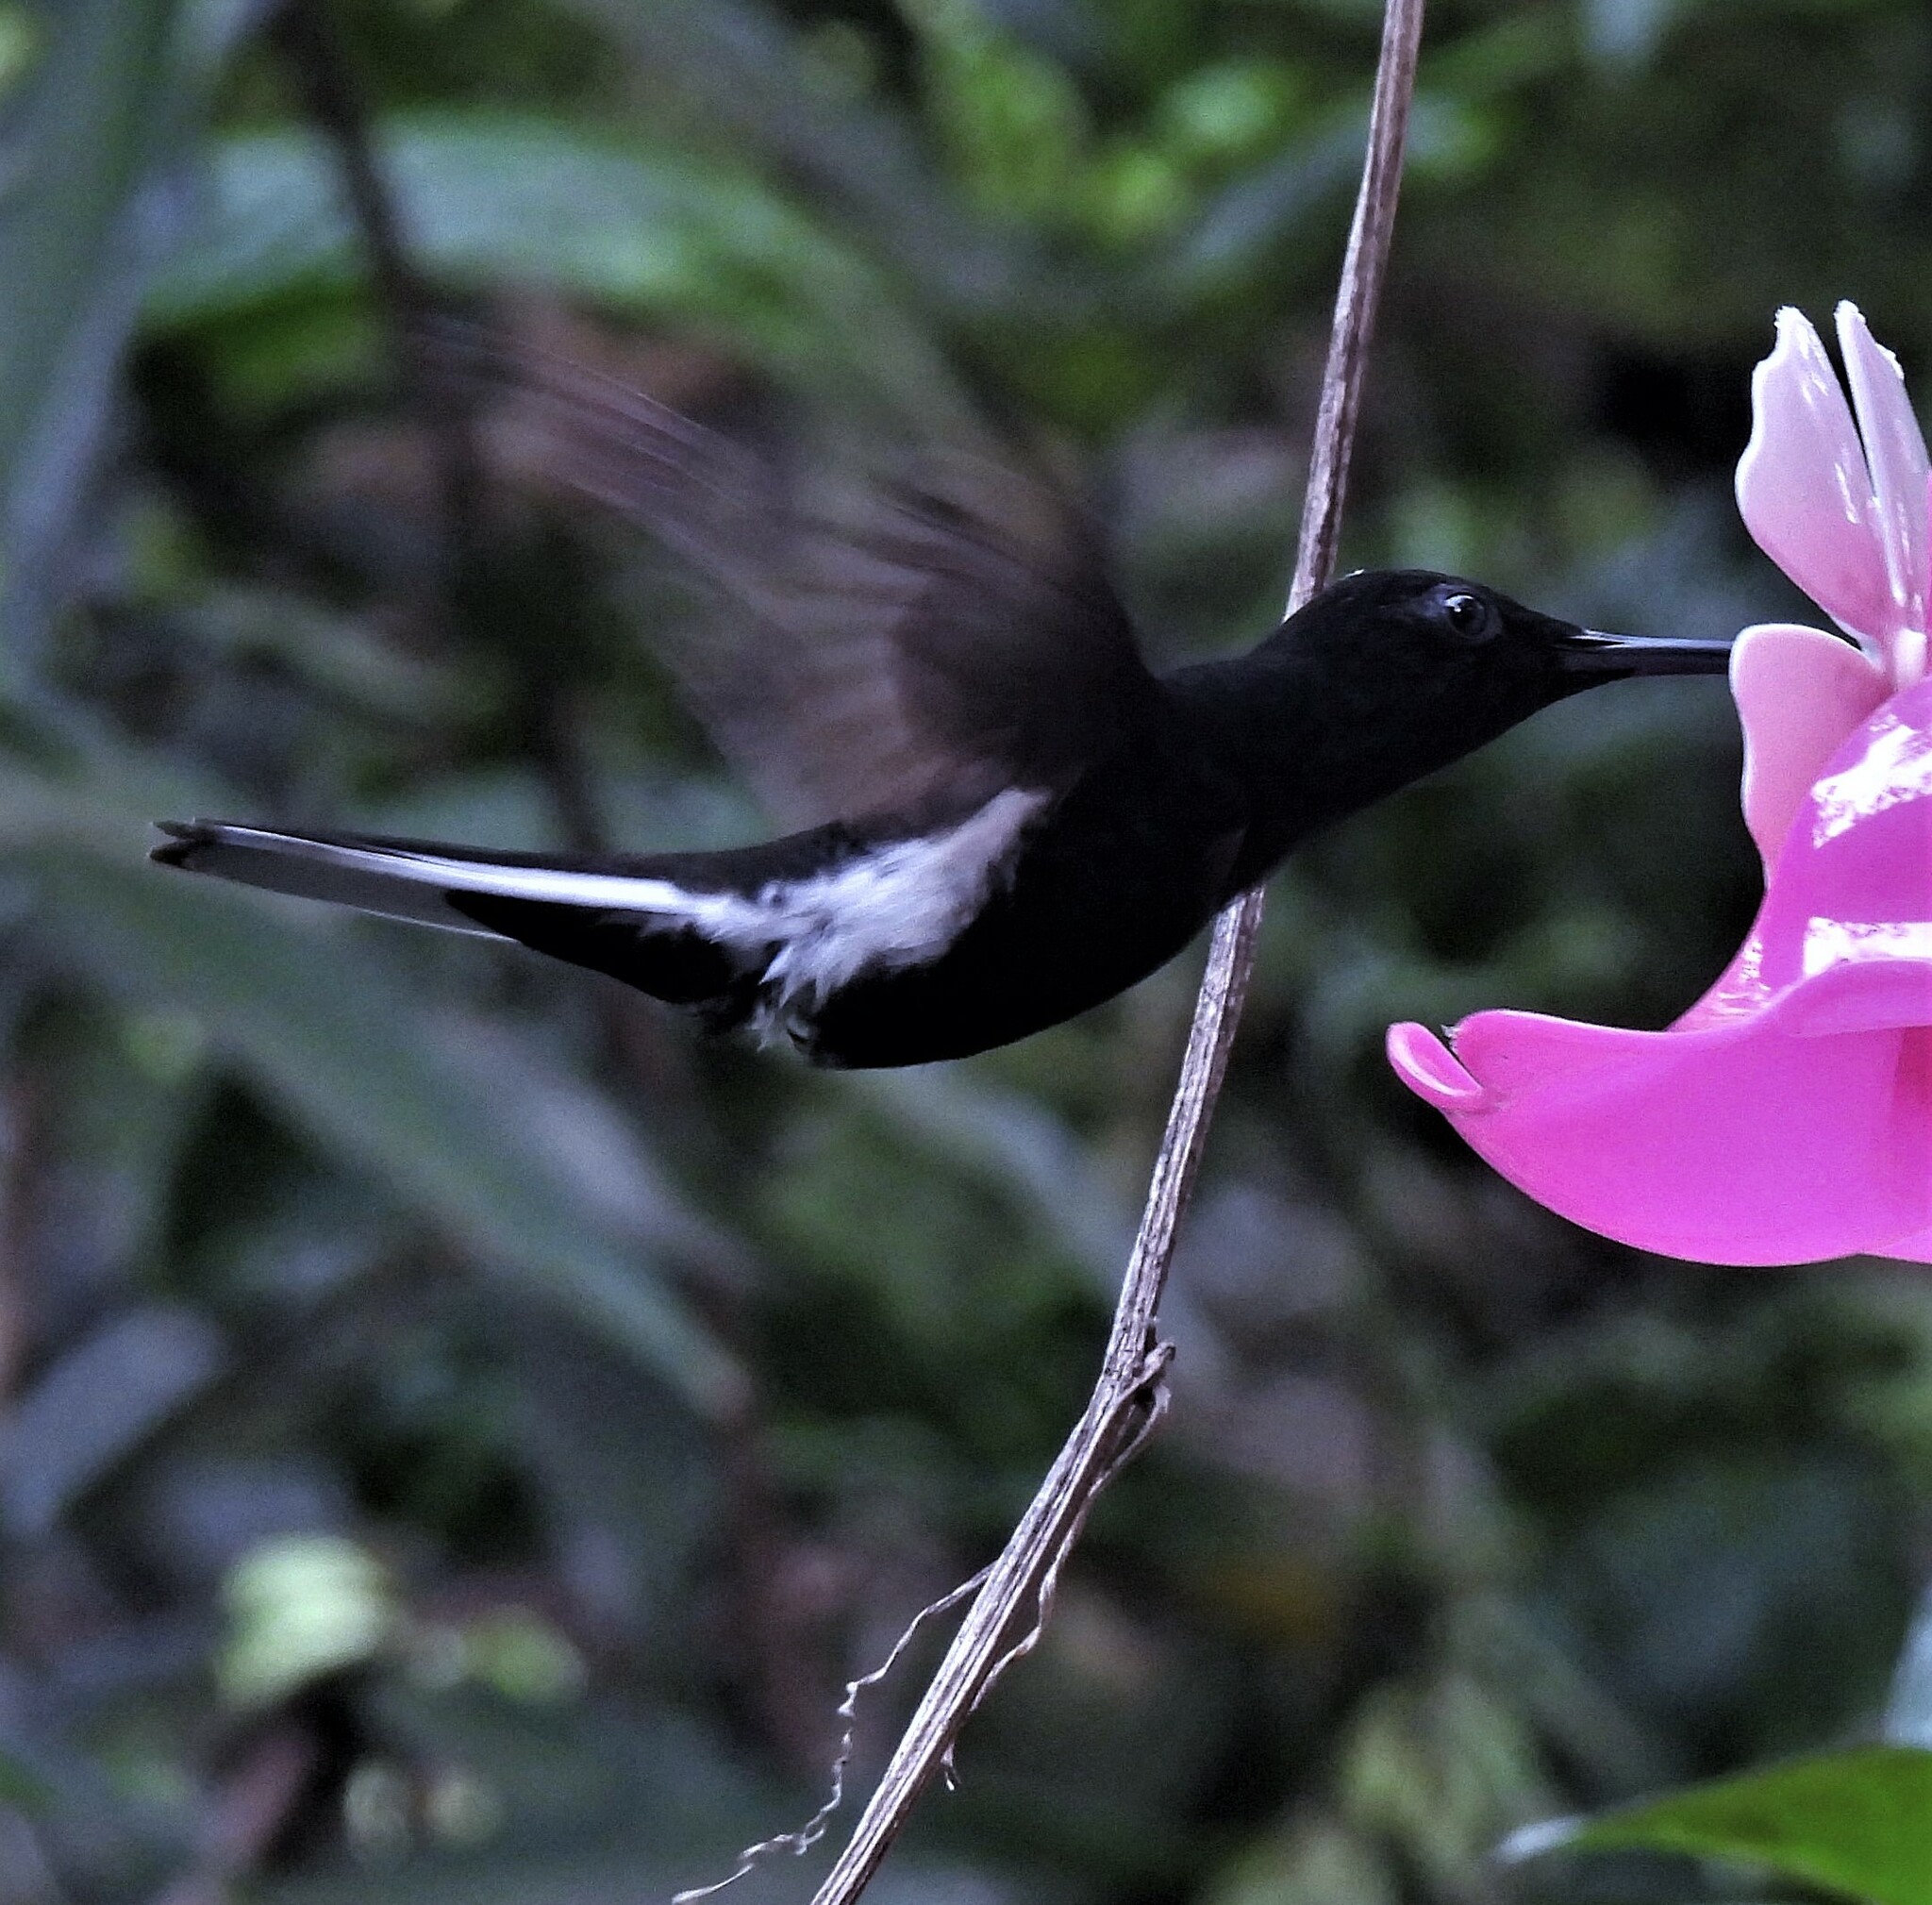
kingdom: Animalia
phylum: Chordata
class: Aves
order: Apodiformes
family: Trochilidae
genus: Florisuga
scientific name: Florisuga fusca
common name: Black jacobin
